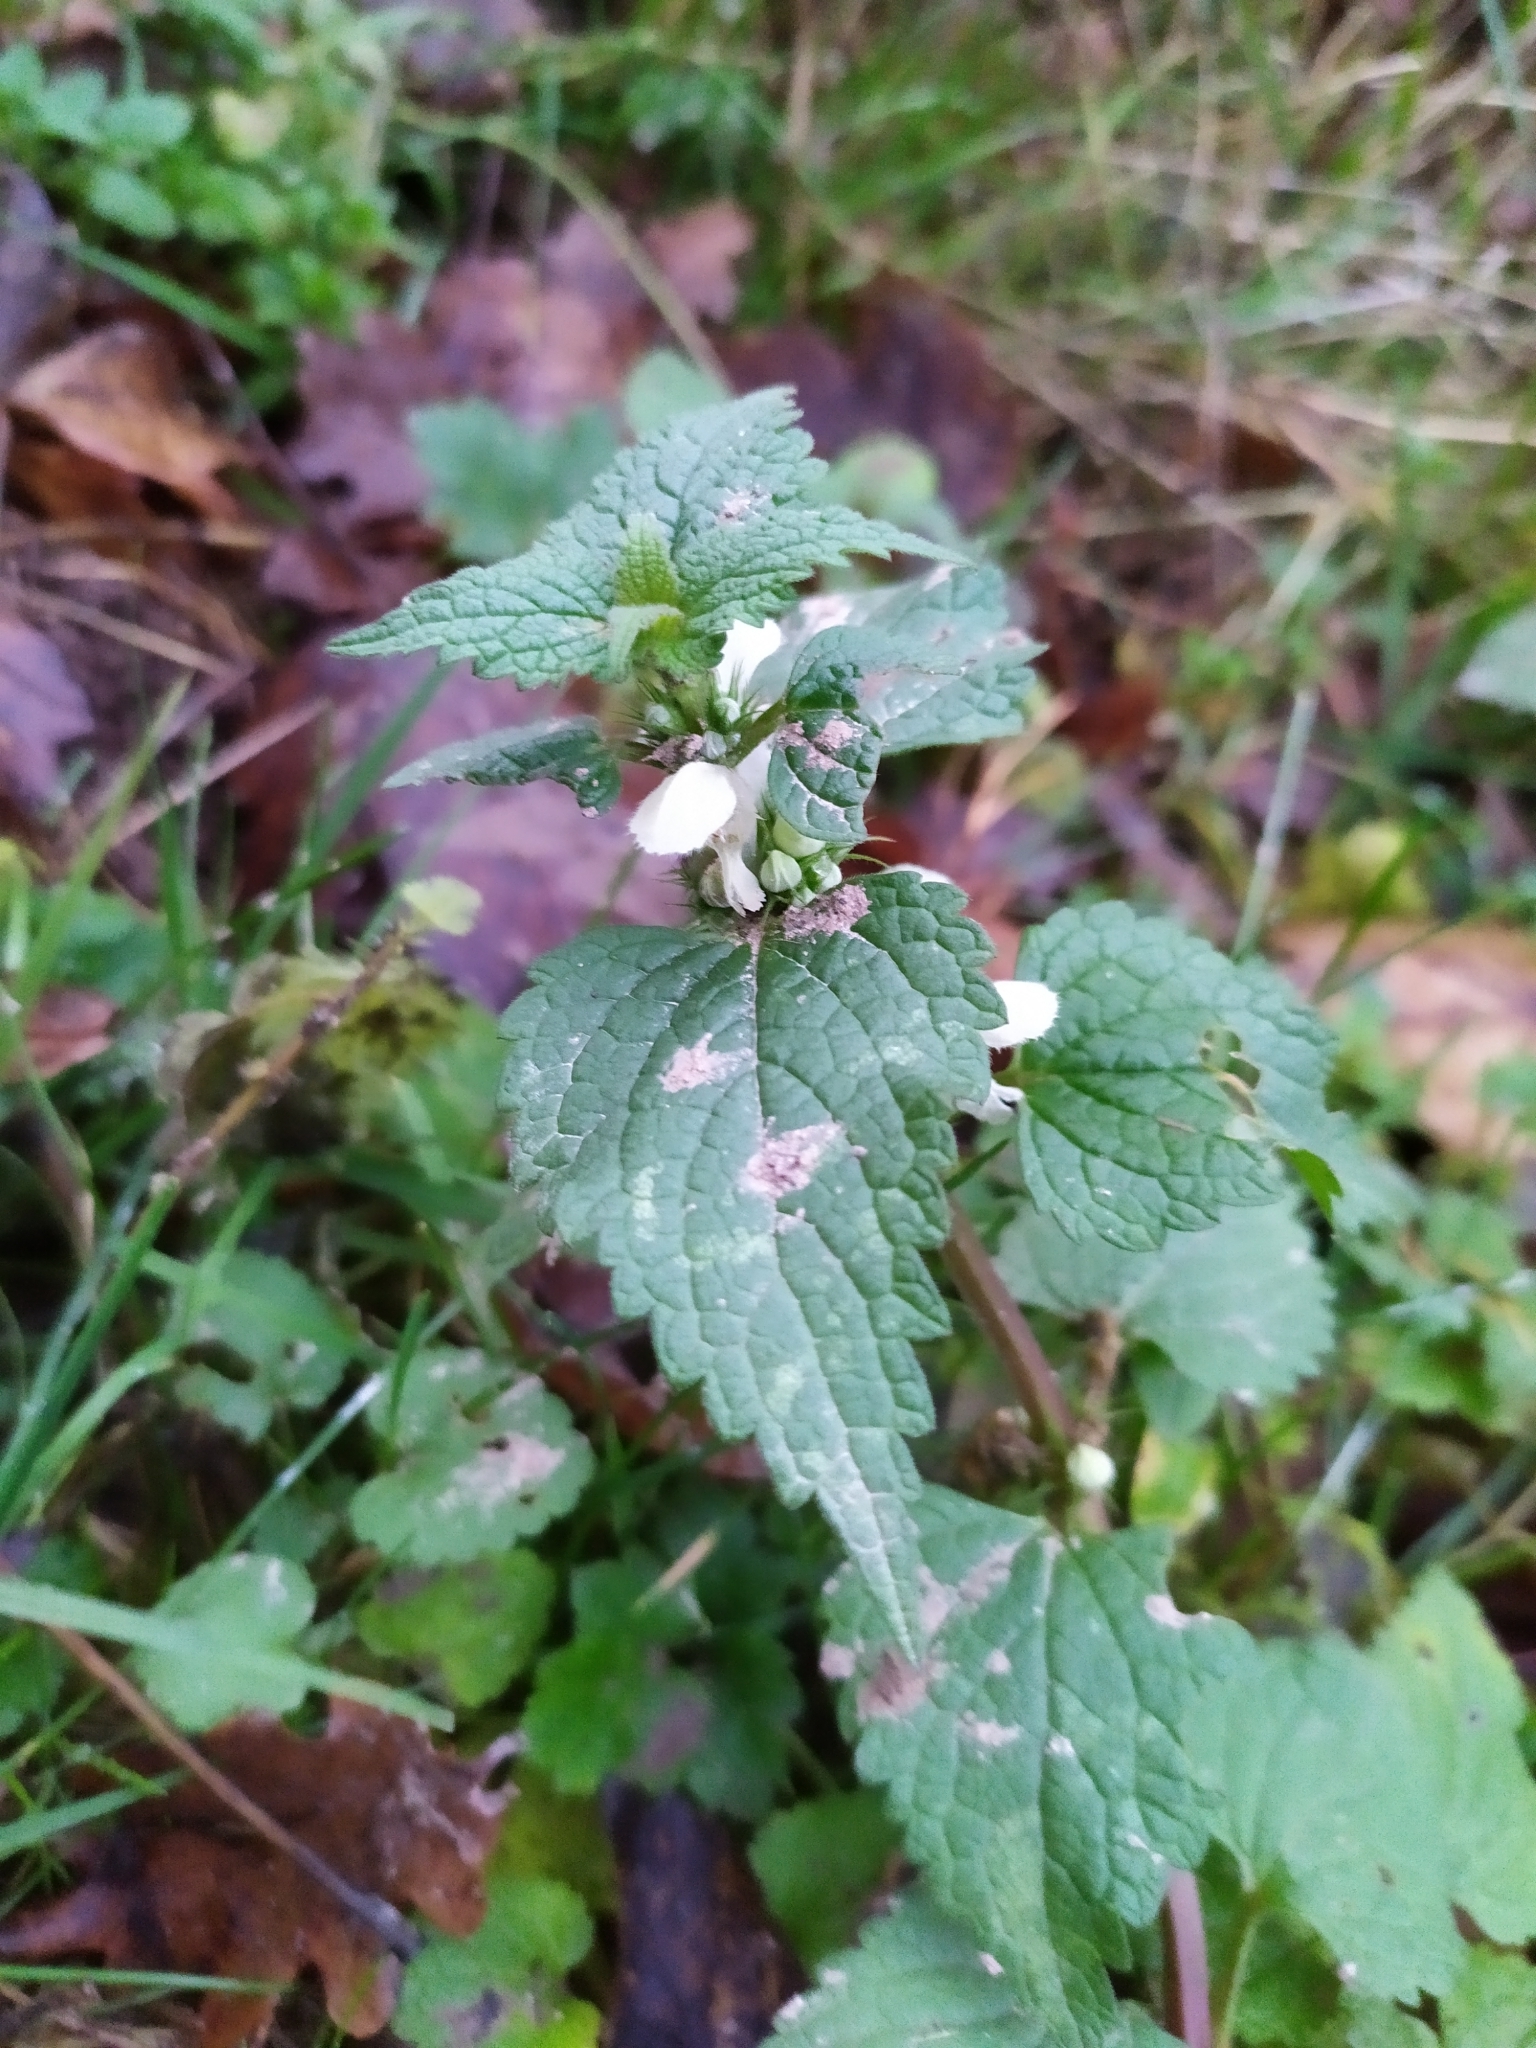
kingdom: Plantae
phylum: Tracheophyta
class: Magnoliopsida
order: Lamiales
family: Lamiaceae
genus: Lamium
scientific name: Lamium album
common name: White dead-nettle
